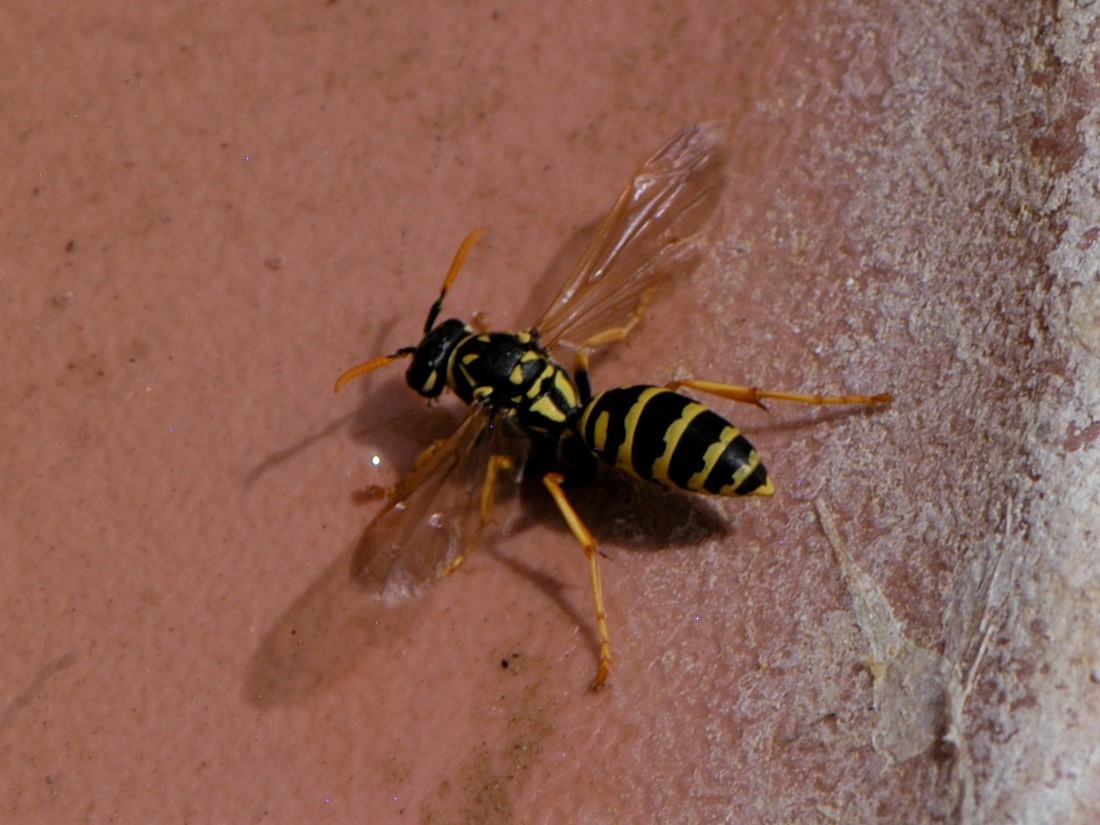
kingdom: Animalia
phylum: Arthropoda
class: Insecta
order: Hymenoptera
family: Eumenidae
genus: Polistes
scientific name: Polistes dominula
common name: Paper wasp
